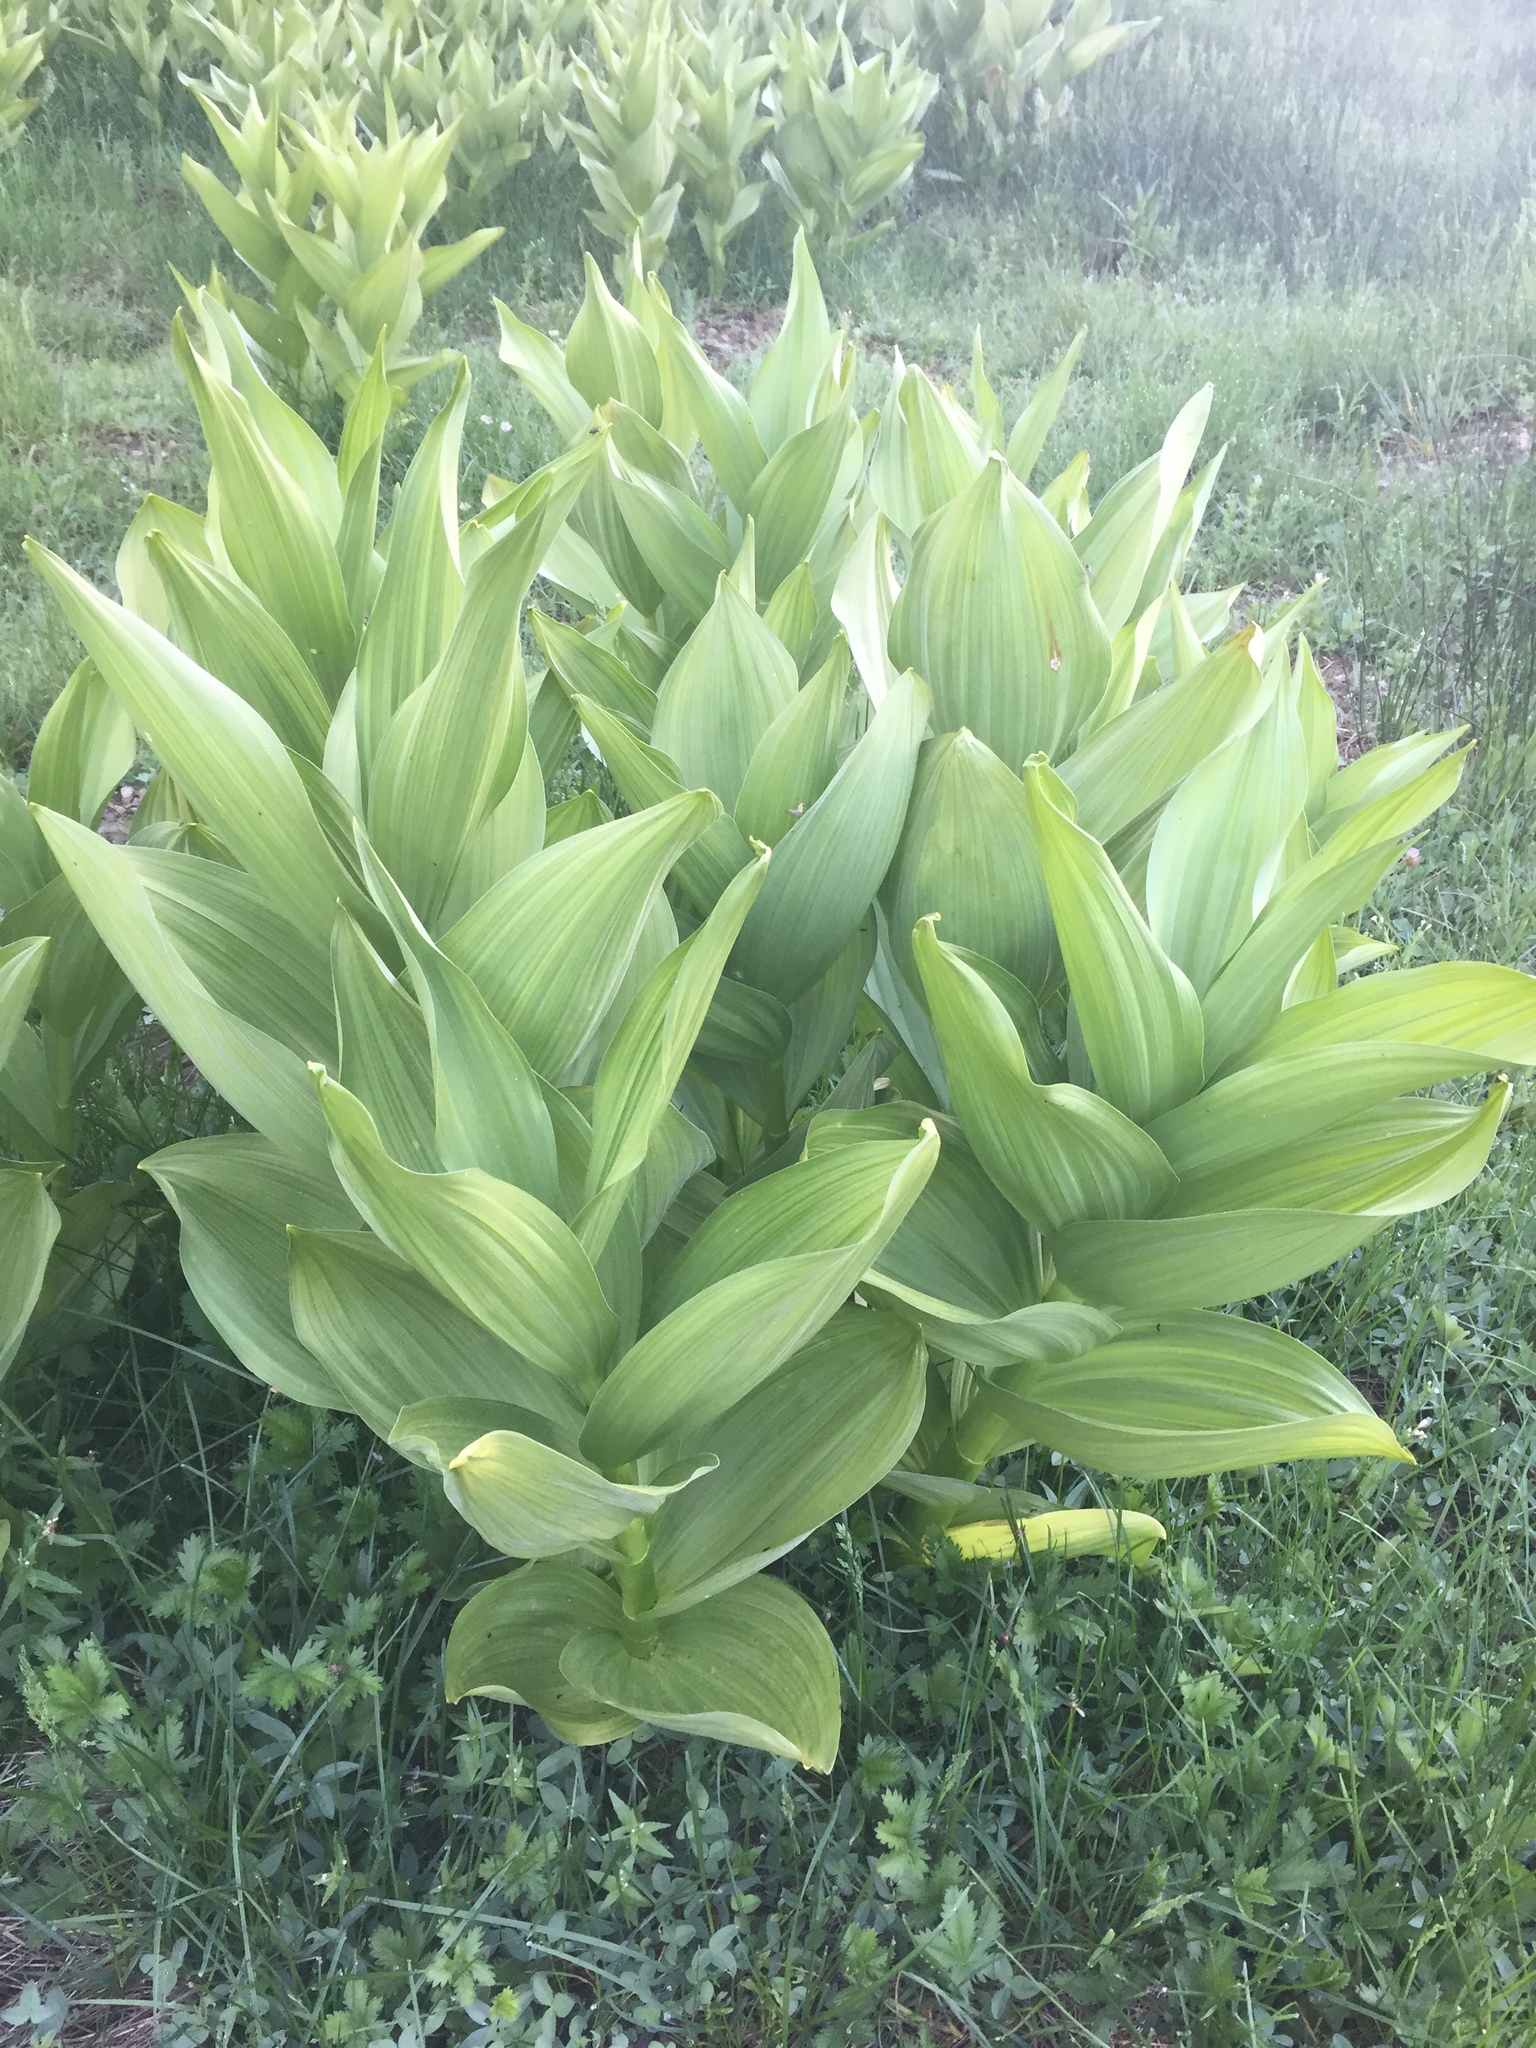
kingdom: Plantae
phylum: Tracheophyta
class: Liliopsida
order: Liliales
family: Melanthiaceae
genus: Veratrum
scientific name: Veratrum californicum
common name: California veratrum
